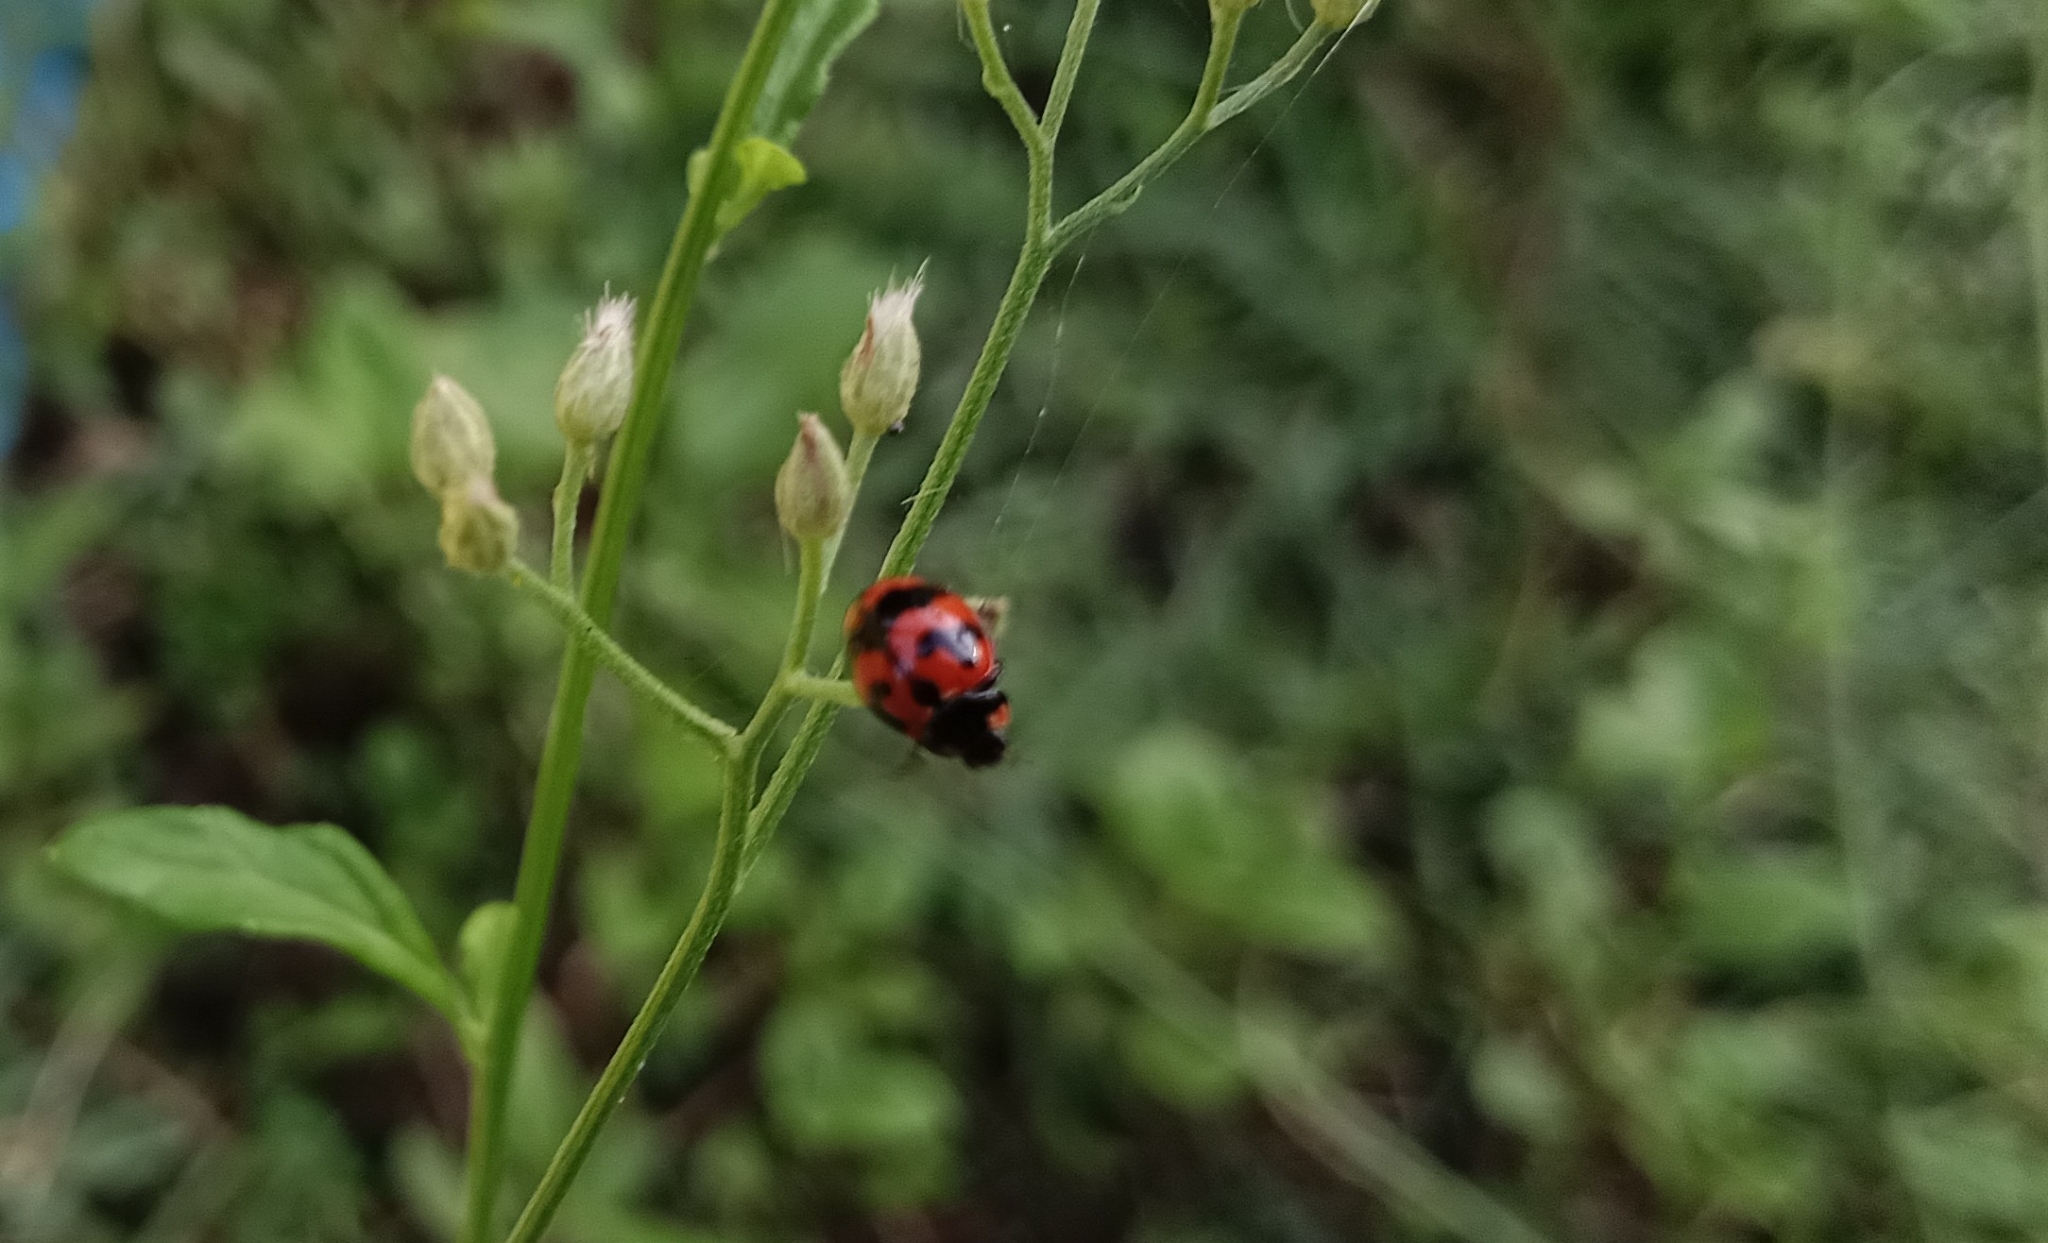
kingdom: Animalia
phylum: Arthropoda
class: Insecta
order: Coleoptera
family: Coccinellidae
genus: Coccinella
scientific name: Coccinella transversalis
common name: Transverse lady beetle
